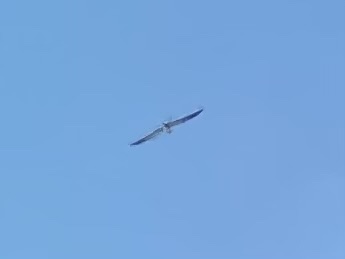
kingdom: Animalia
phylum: Chordata
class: Aves
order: Accipitriformes
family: Accipitridae
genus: Elanoides
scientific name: Elanoides forficatus
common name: Swallow-tailed kite
